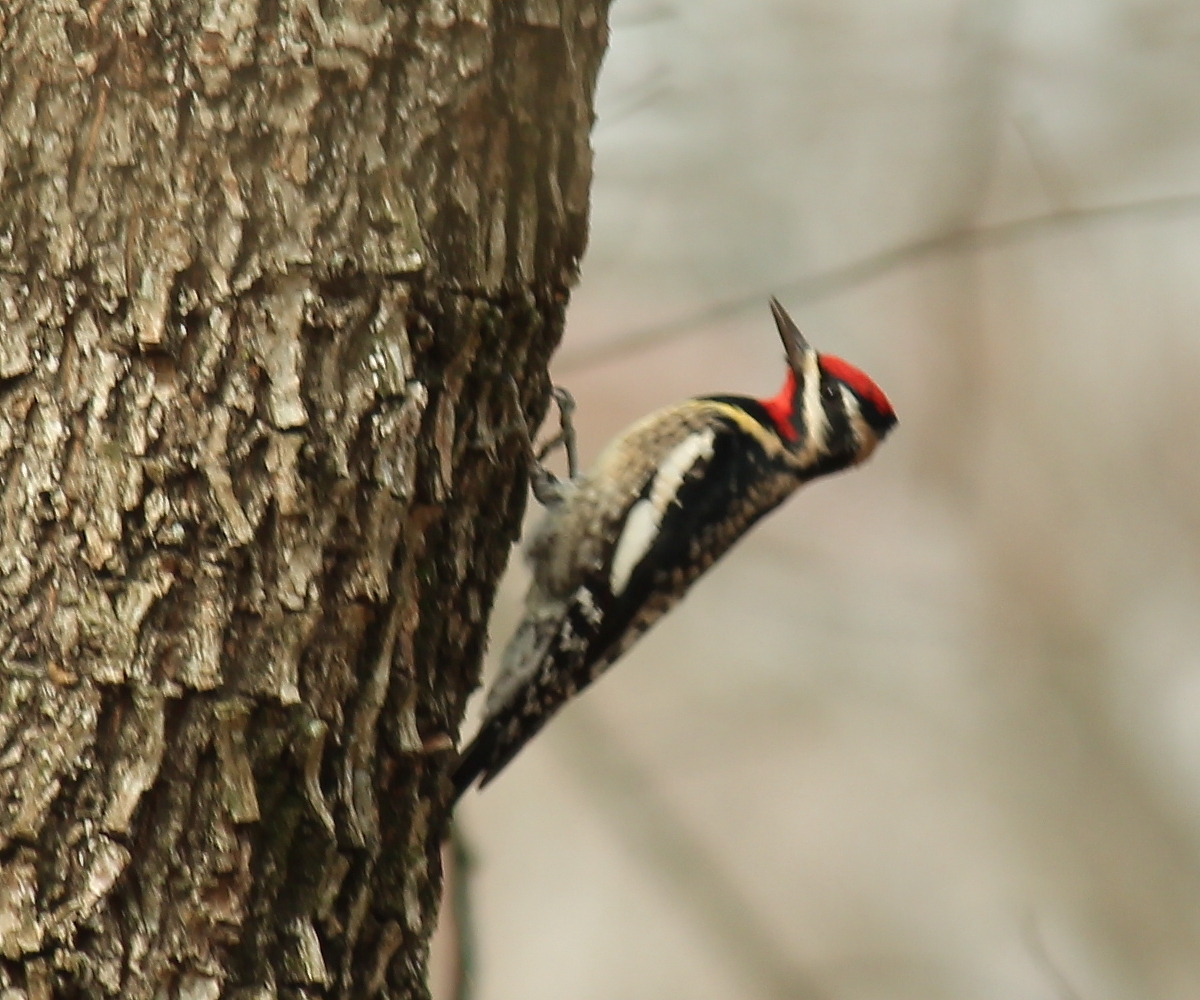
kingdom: Animalia
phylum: Chordata
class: Aves
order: Piciformes
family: Picidae
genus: Sphyrapicus
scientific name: Sphyrapicus varius
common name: Yellow-bellied sapsucker
